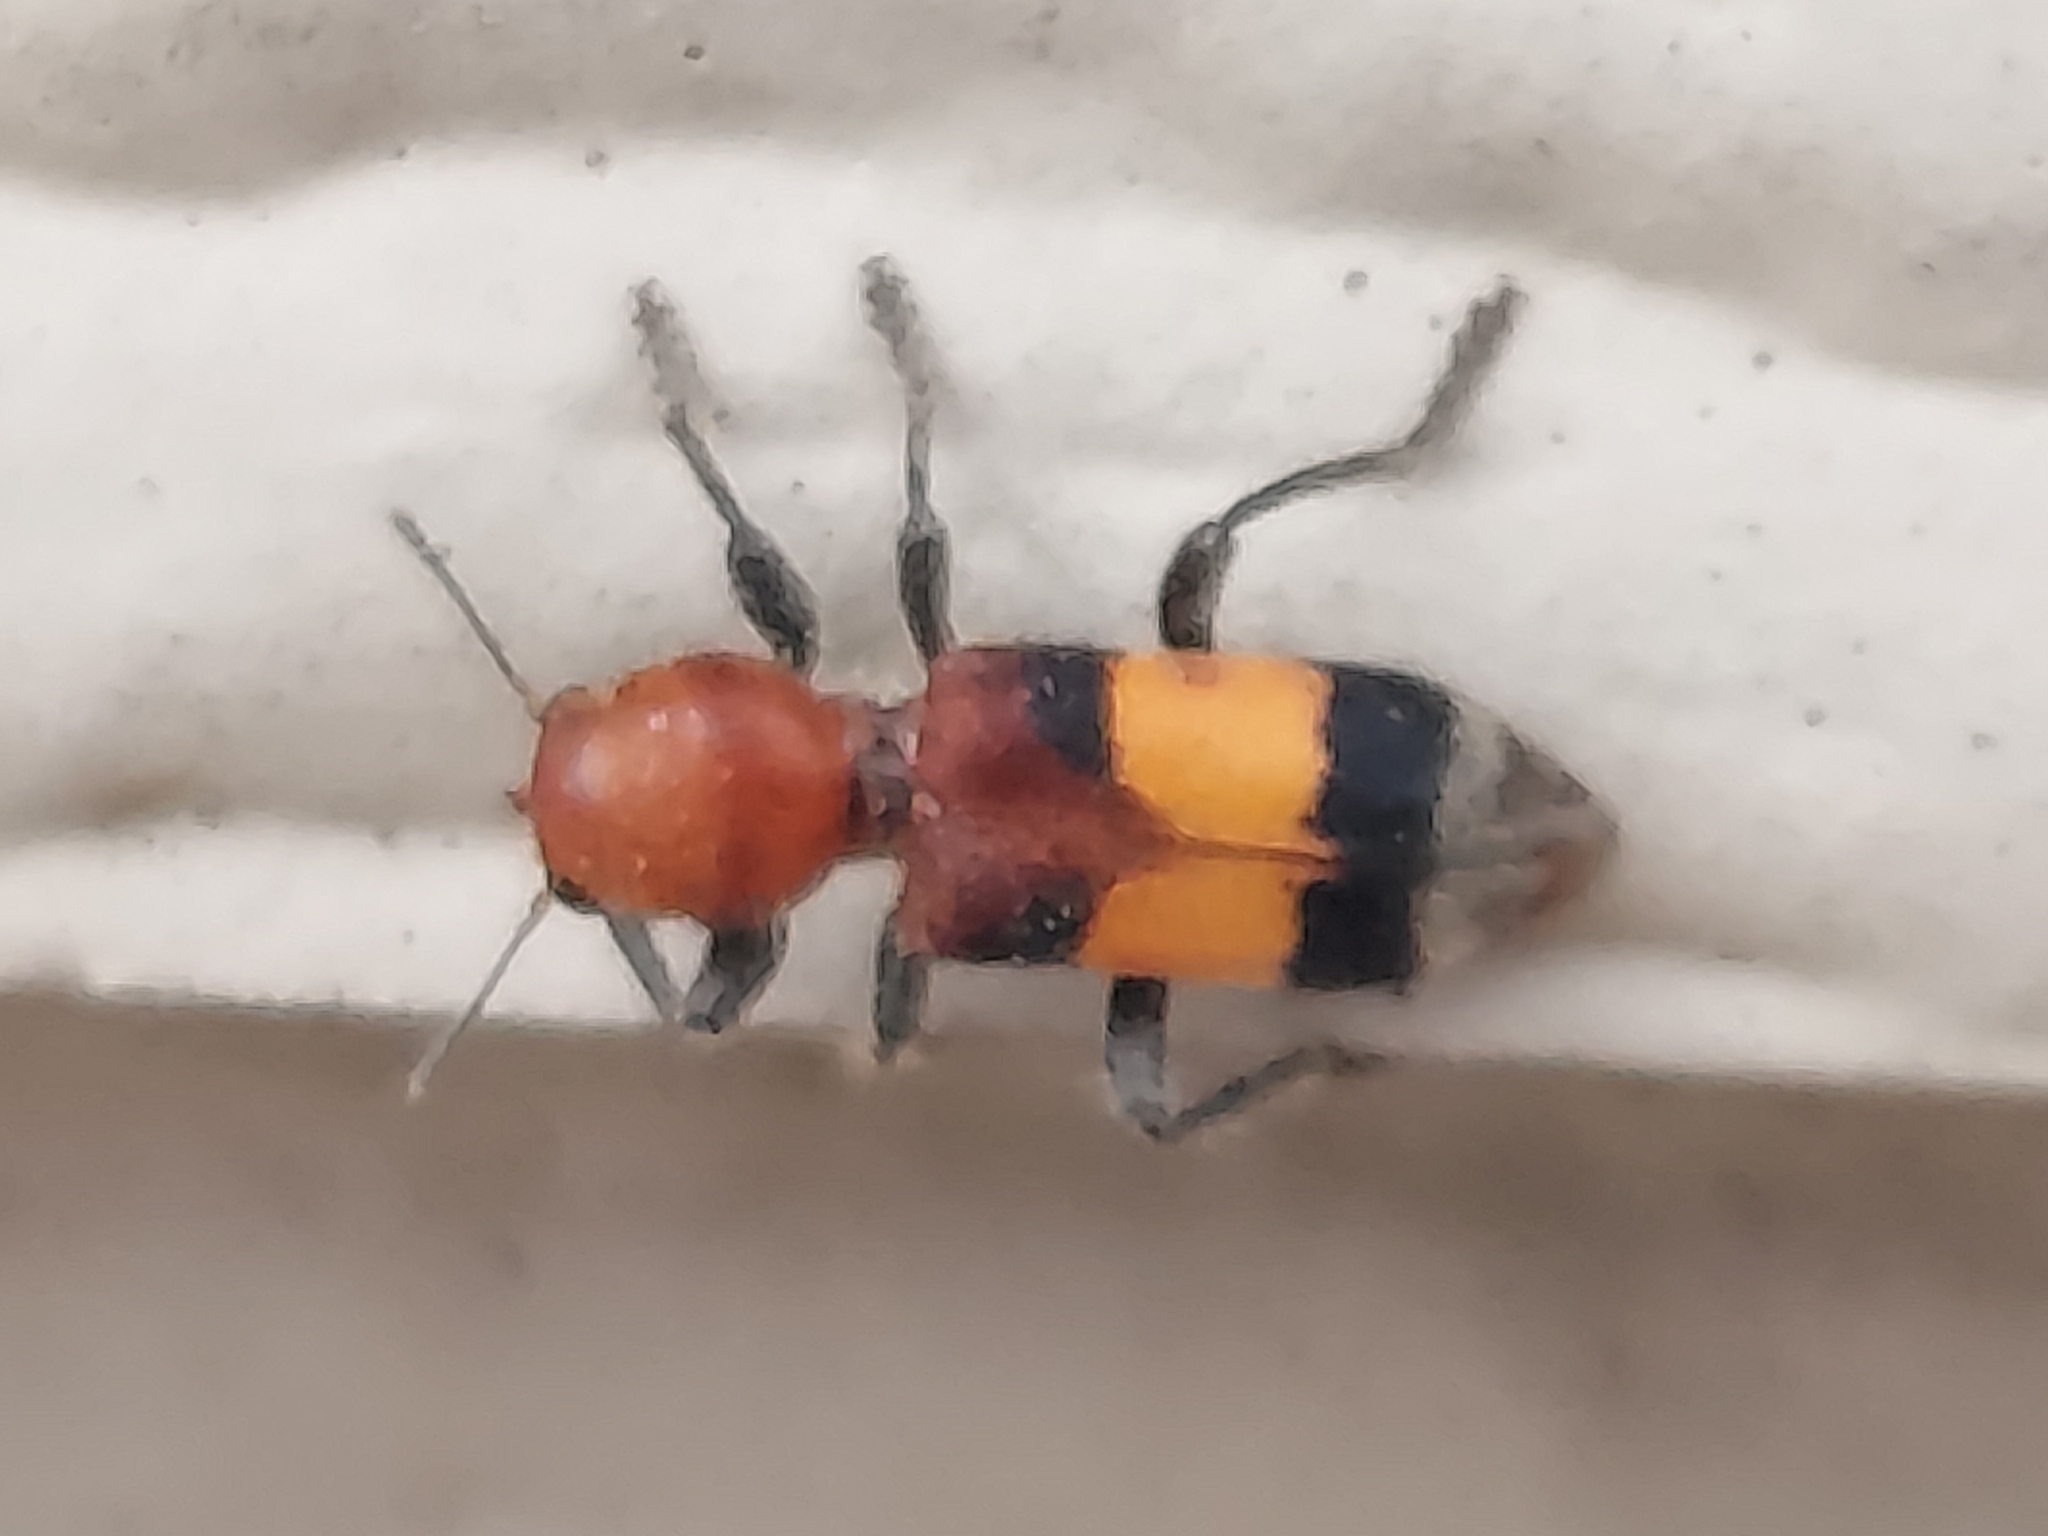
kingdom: Animalia
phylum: Arthropoda
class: Insecta
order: Coleoptera
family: Cleridae
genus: Enoclerus
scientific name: Enoclerus ichneumoneus
